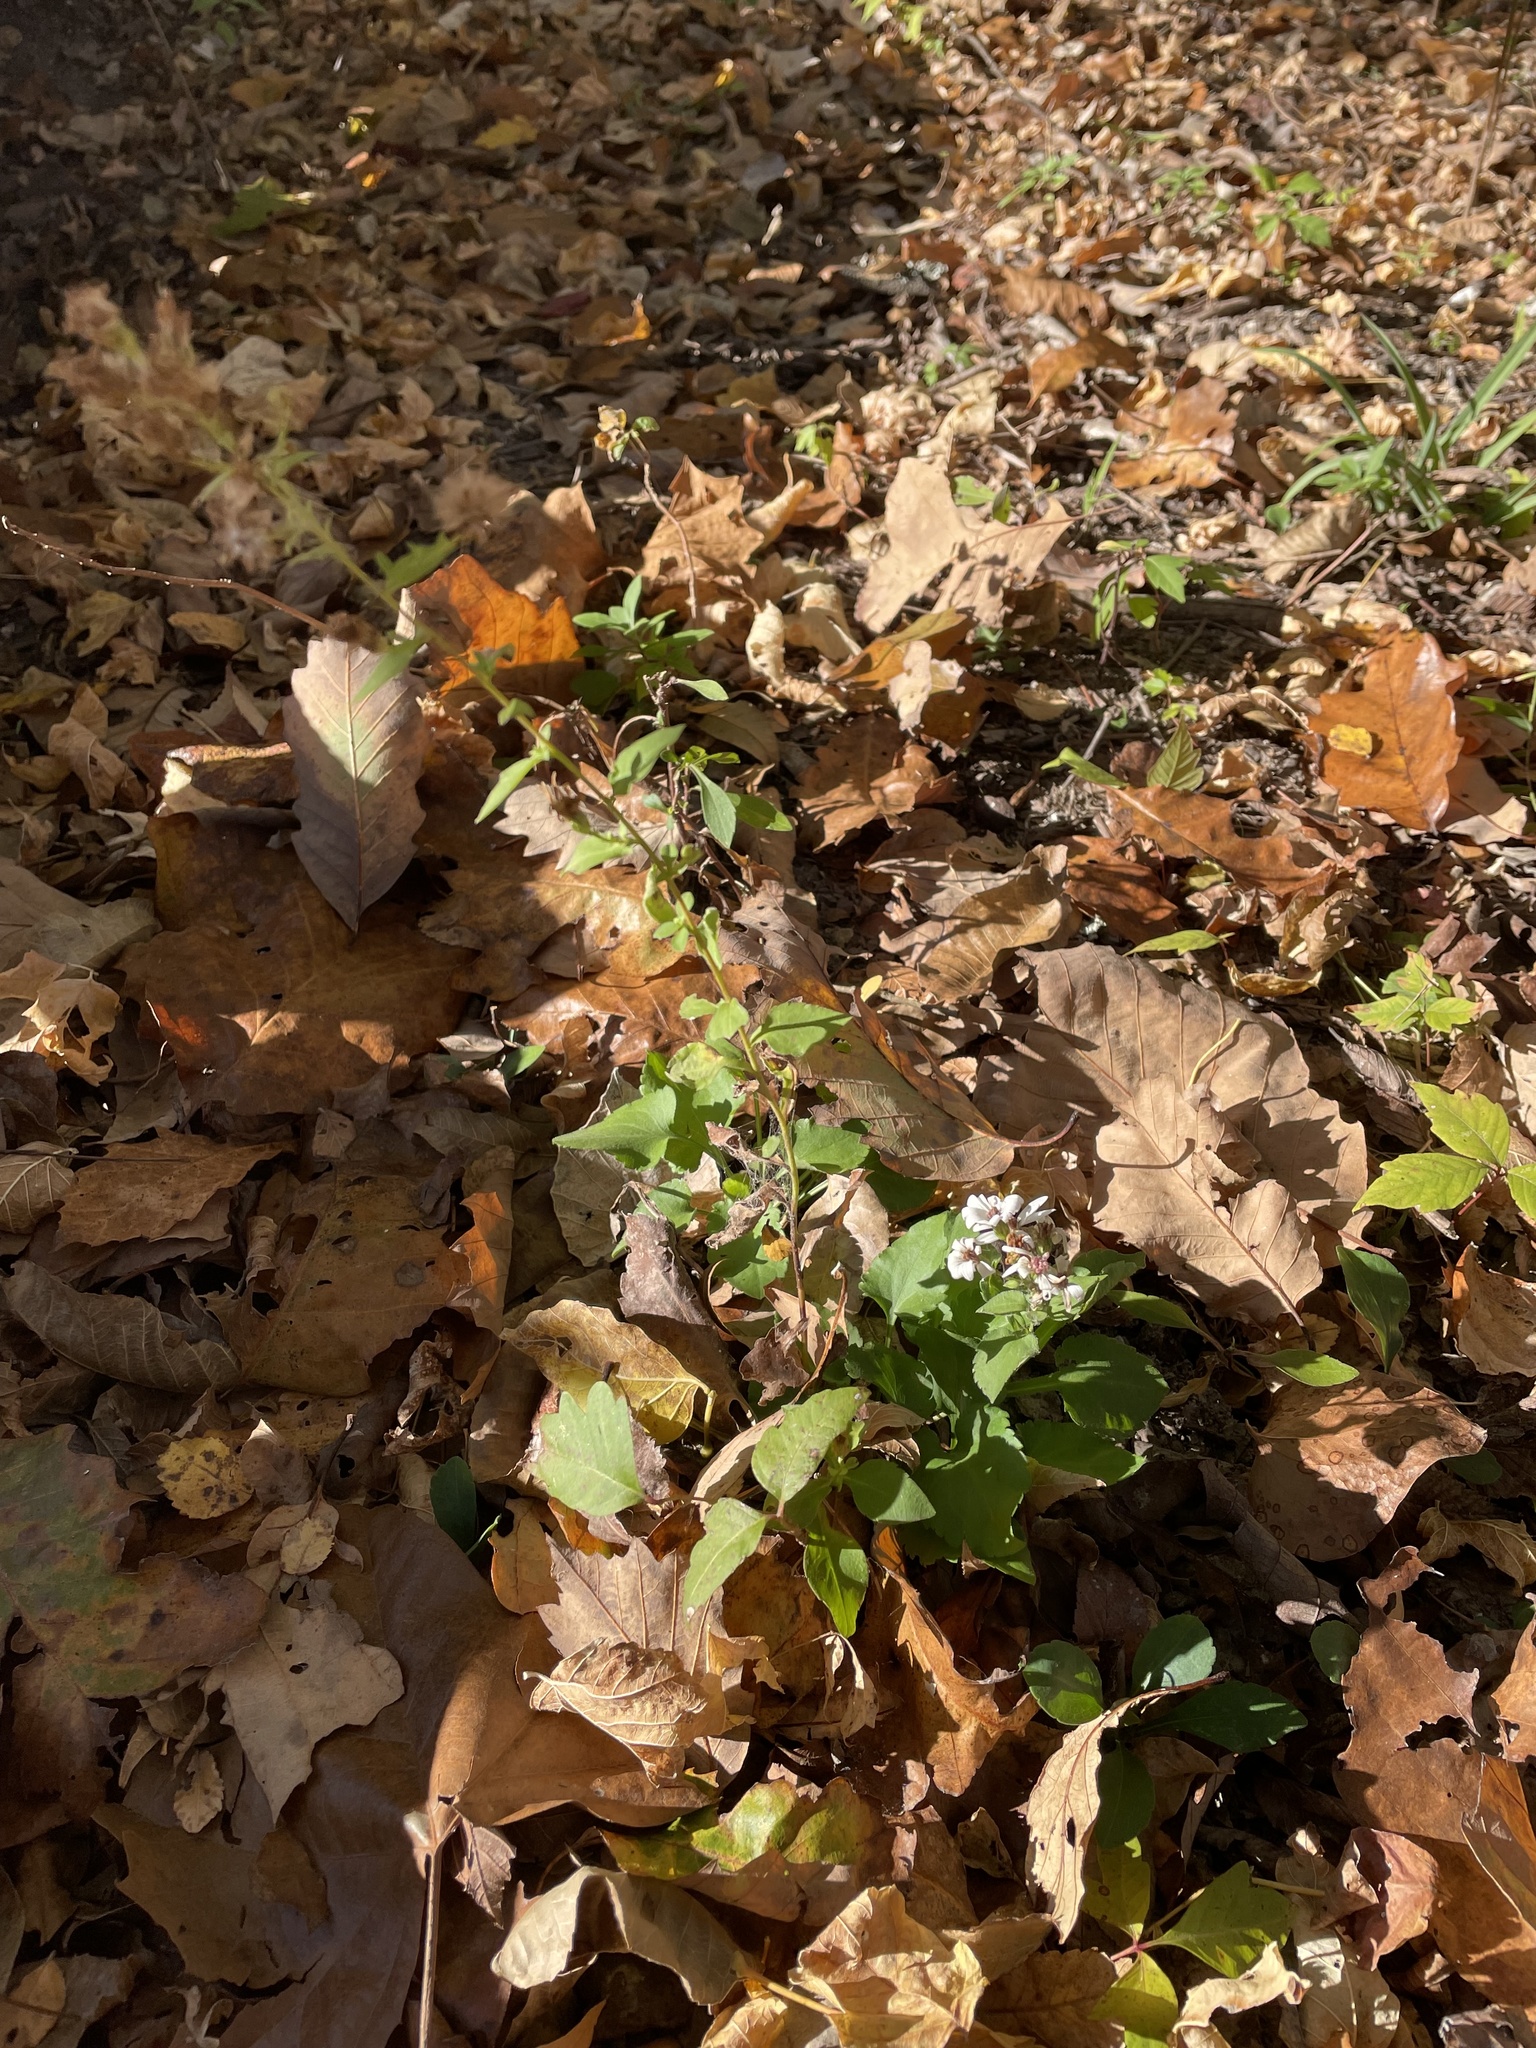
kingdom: Plantae
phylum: Tracheophyta
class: Magnoliopsida
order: Asterales
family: Asteraceae
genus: Symphyotrichum
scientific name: Symphyotrichum drummondii
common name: Drummond's aster
